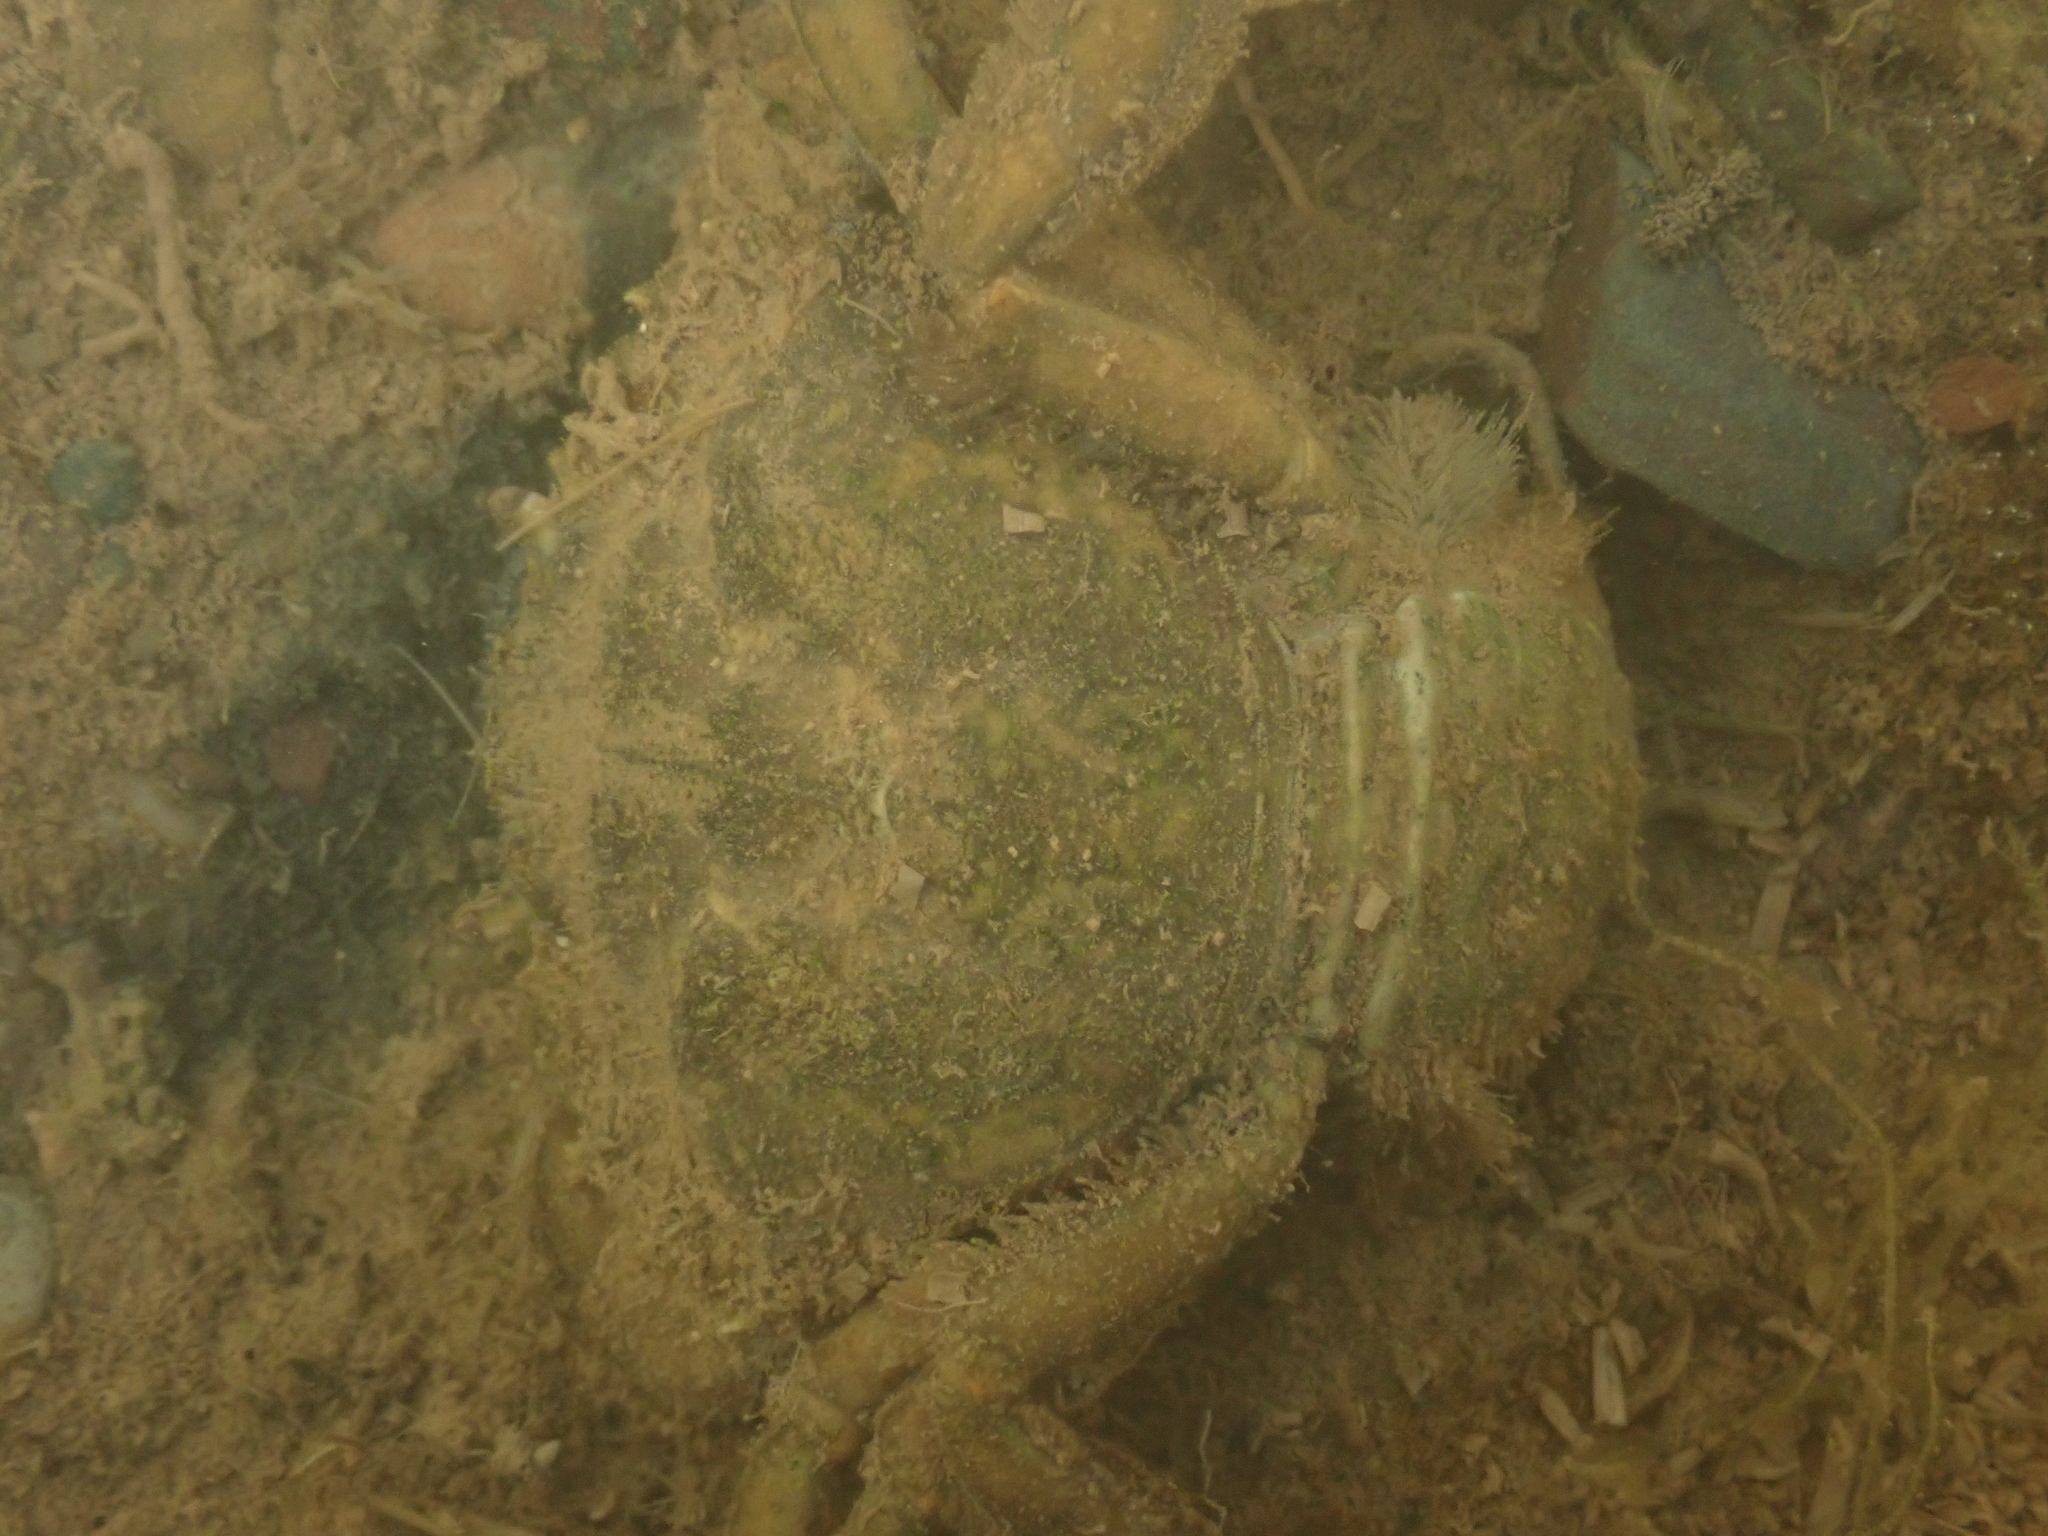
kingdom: Animalia
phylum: Arthropoda
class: Malacostraca
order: Decapoda
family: Carcinidae
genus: Carcinus
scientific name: Carcinus maenas
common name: European green crab
